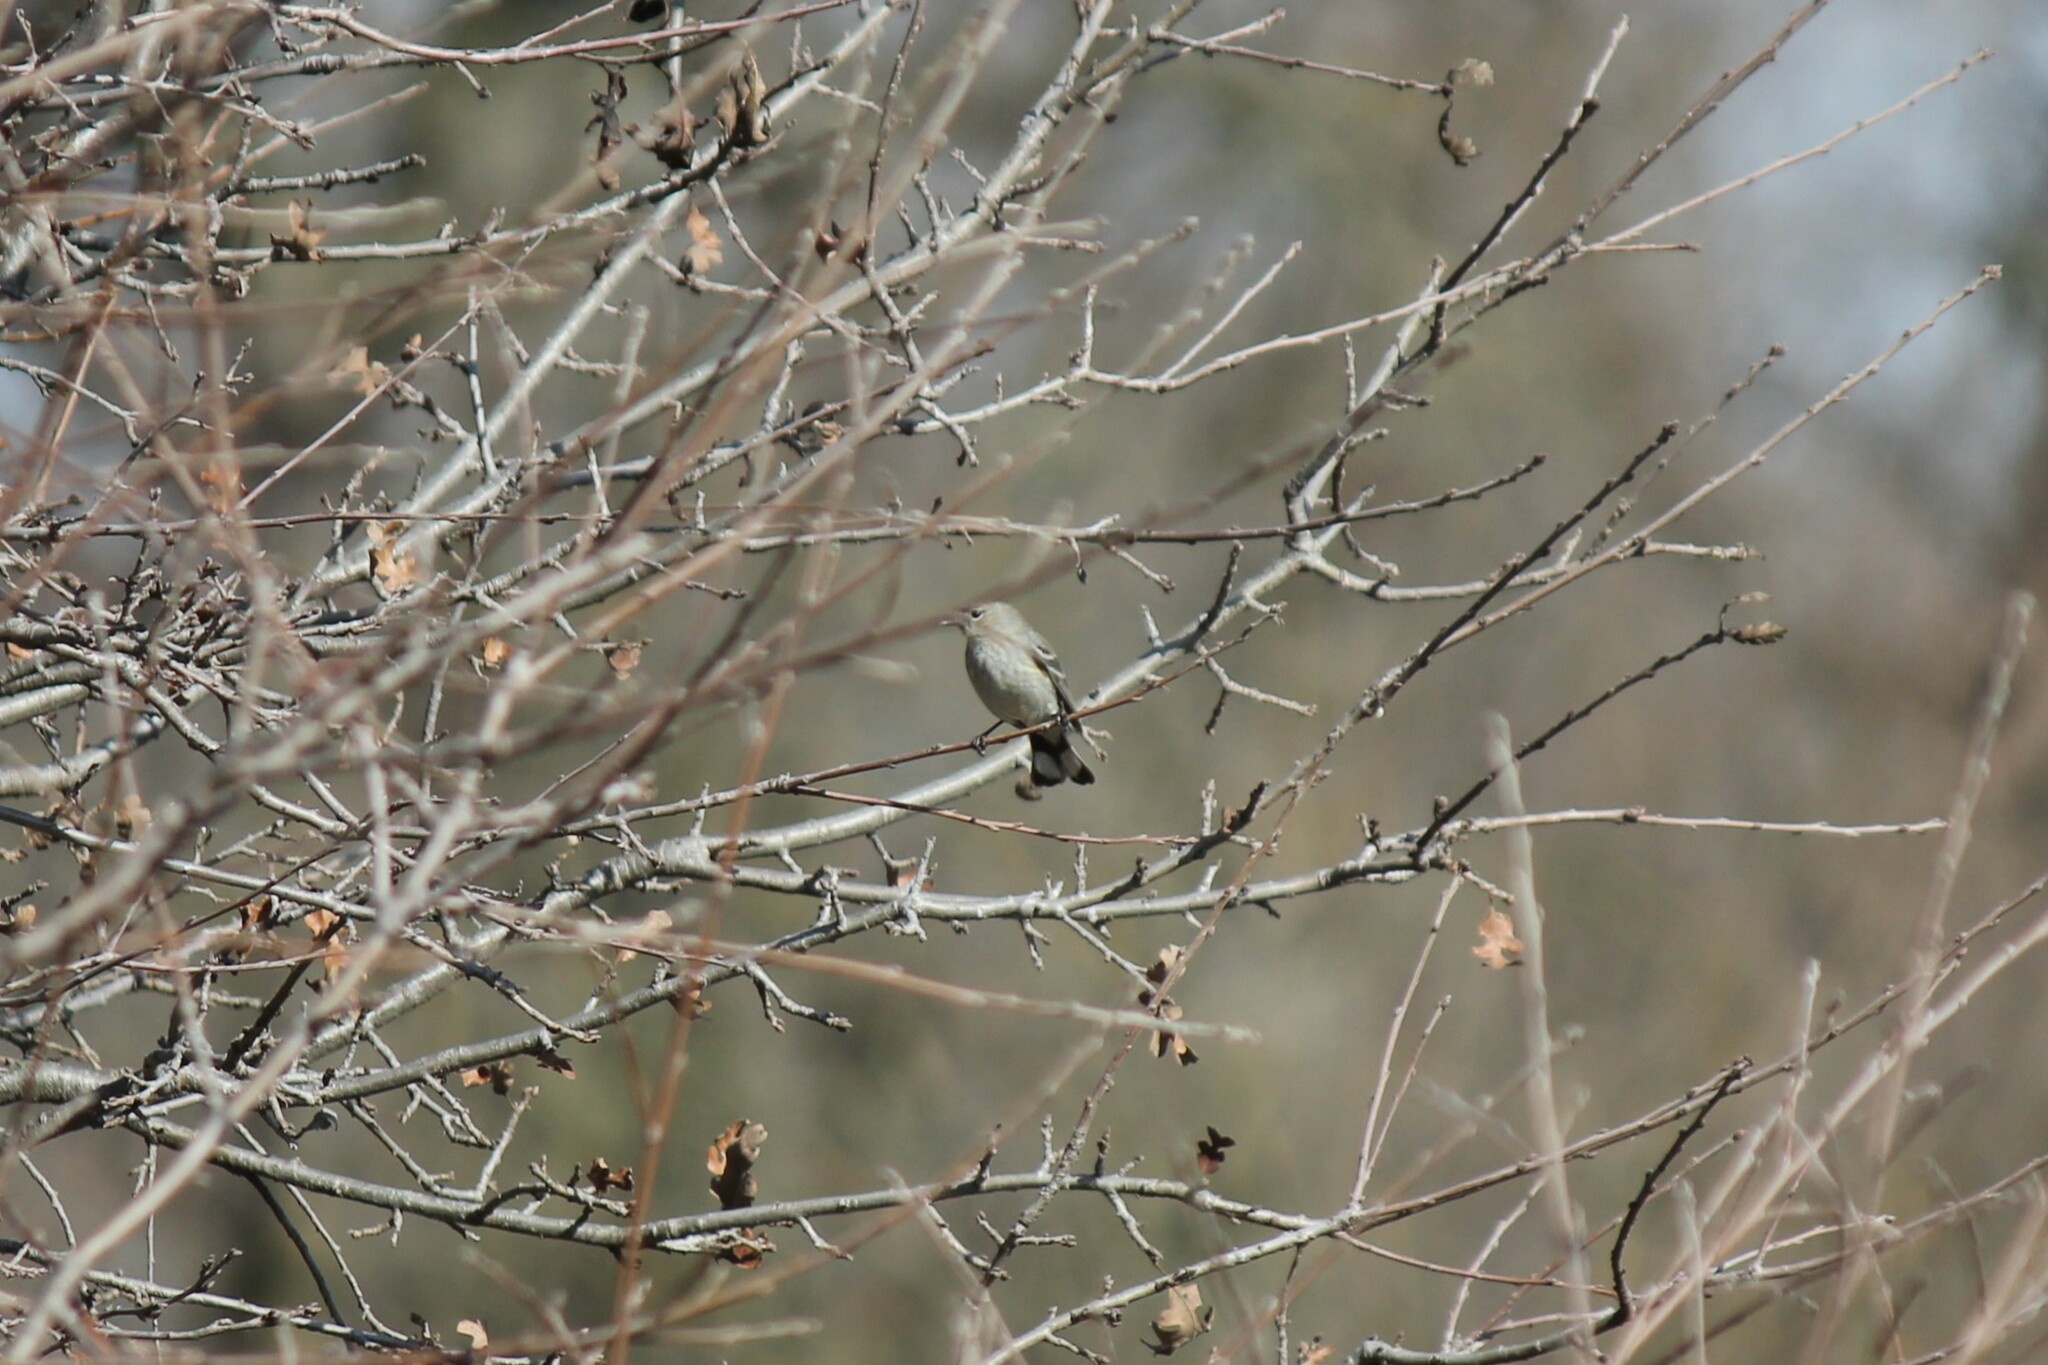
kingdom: Animalia
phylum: Chordata
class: Aves
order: Passeriformes
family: Parulidae
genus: Setophaga
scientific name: Setophaga coronata
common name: Myrtle warbler
